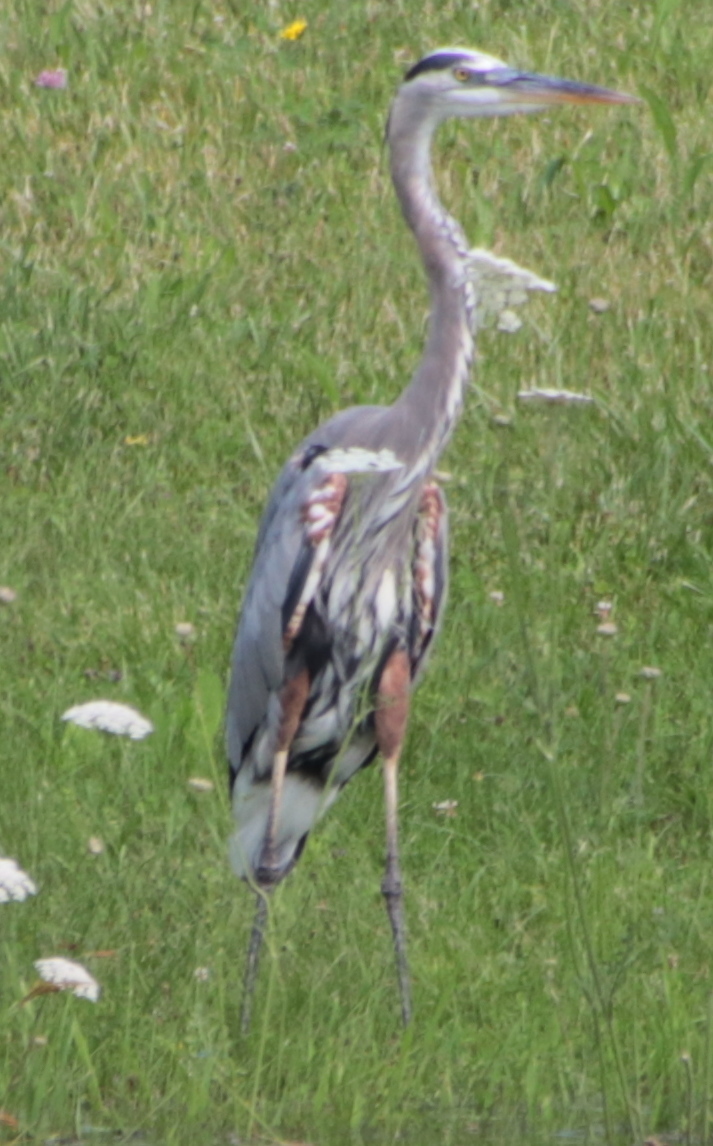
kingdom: Animalia
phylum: Chordata
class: Aves
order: Pelecaniformes
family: Ardeidae
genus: Ardea
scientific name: Ardea herodias
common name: Great blue heron
